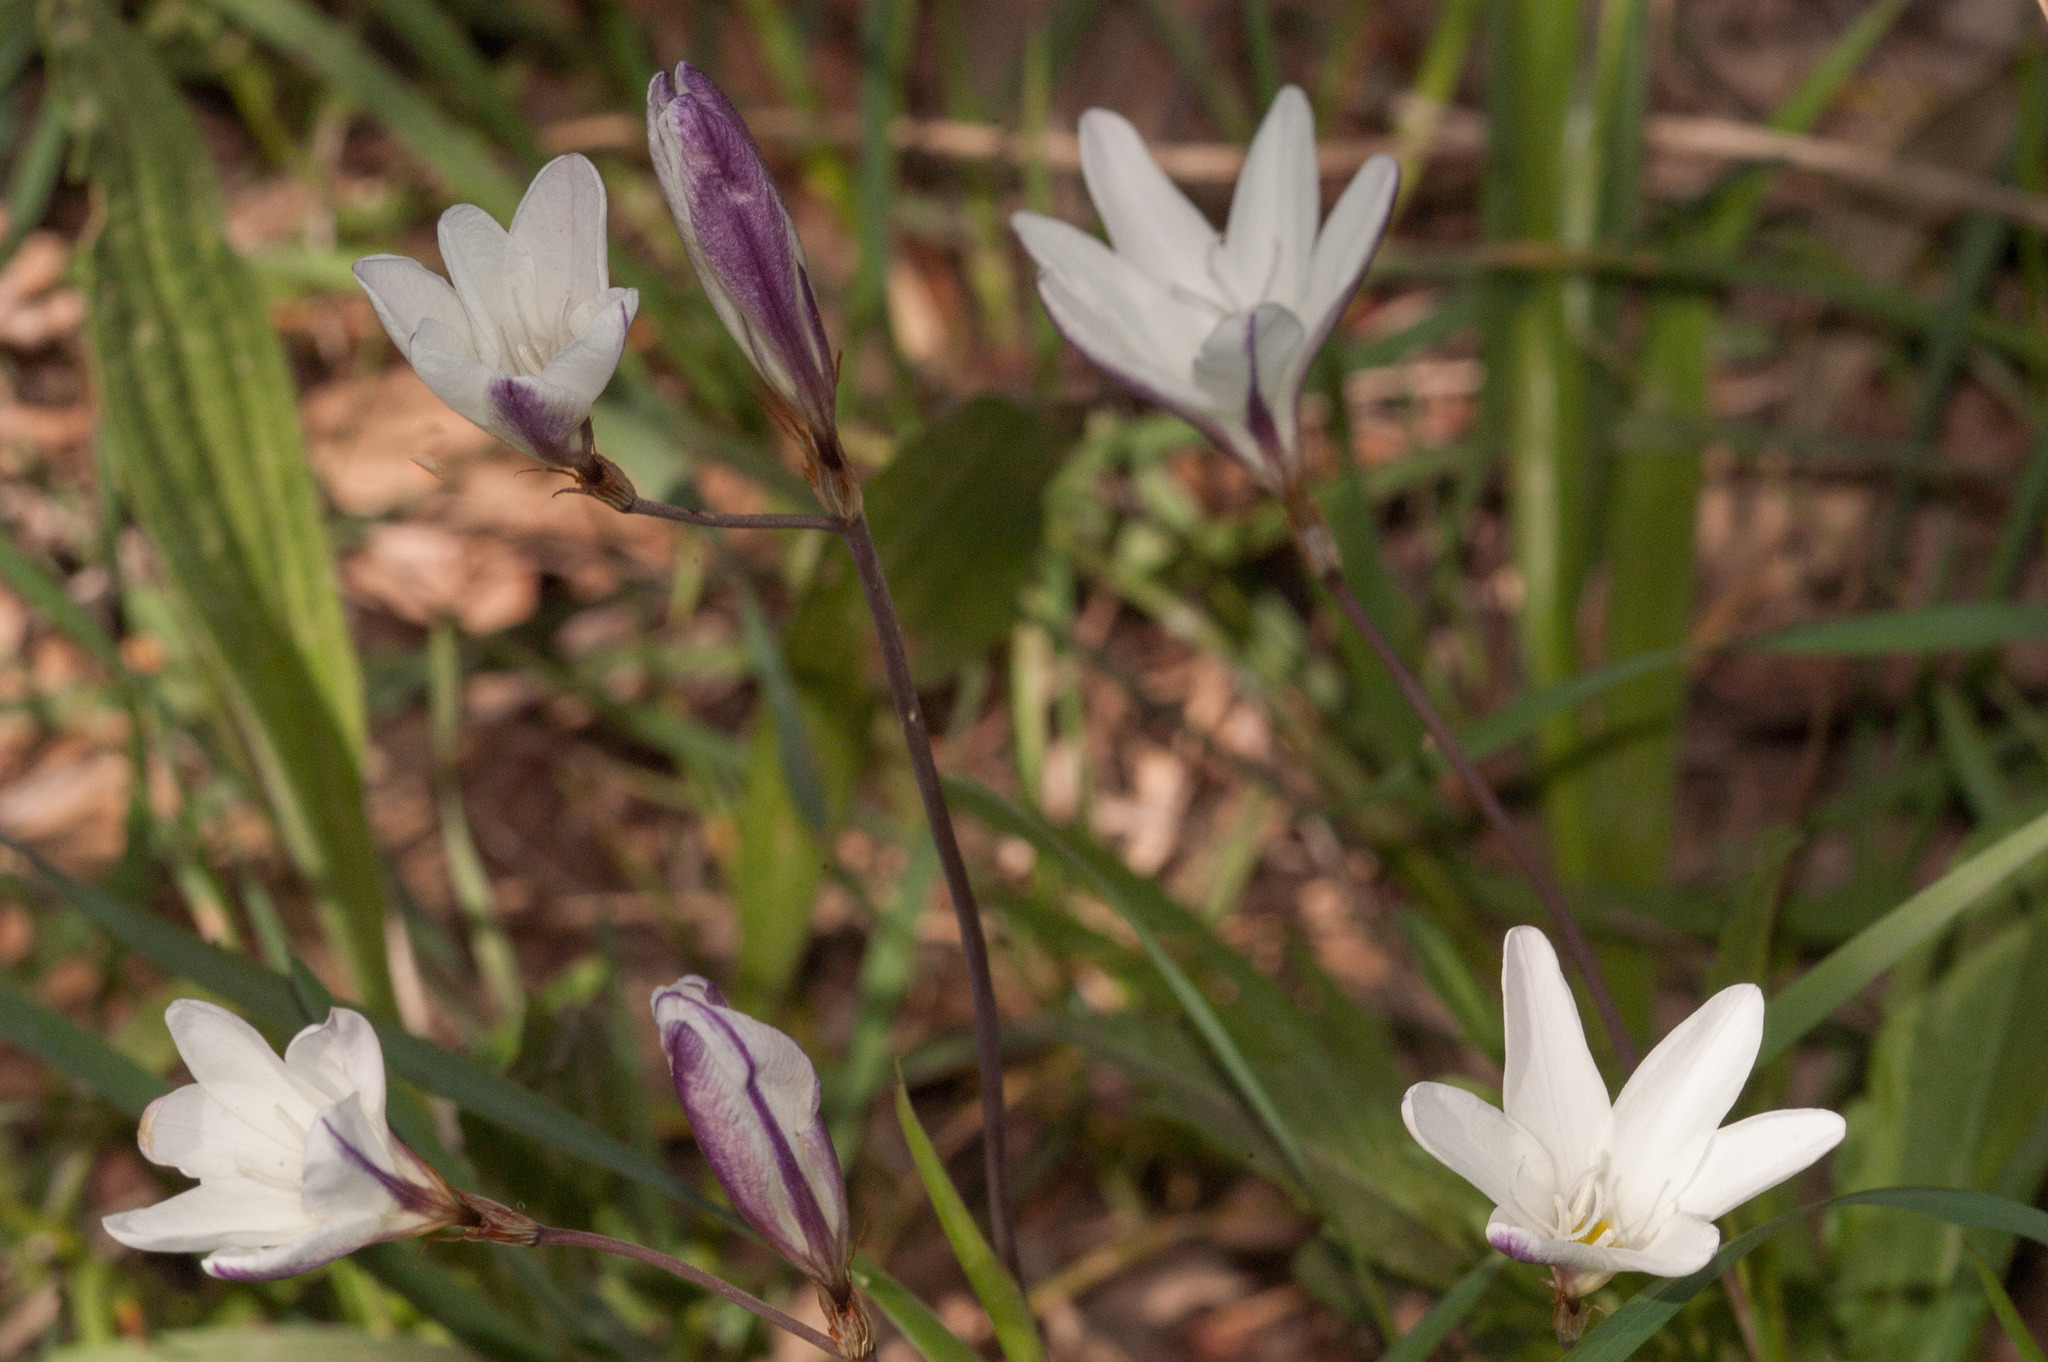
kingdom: Plantae
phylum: Tracheophyta
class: Liliopsida
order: Asparagales
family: Iridaceae
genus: Sparaxis
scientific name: Sparaxis bulbifera
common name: Harlequin-flower
